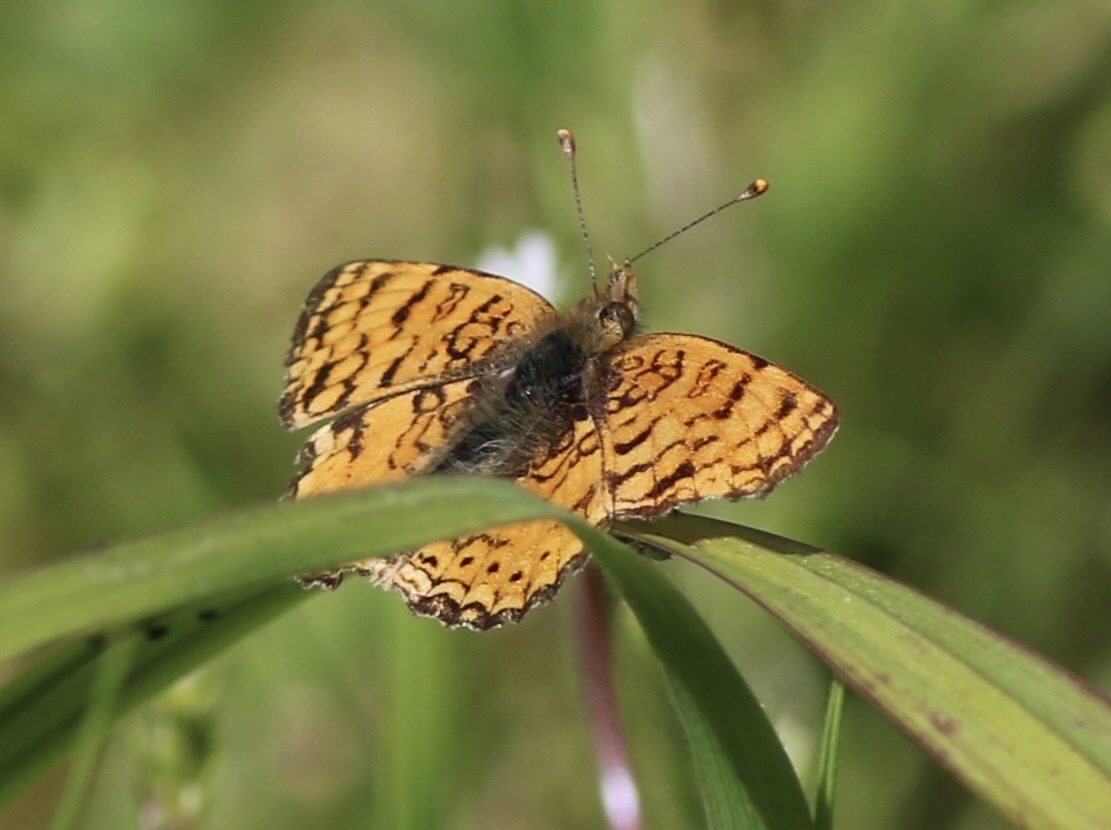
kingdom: Animalia
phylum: Arthropoda
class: Insecta
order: Lepidoptera
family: Nymphalidae
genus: Eresia
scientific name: Eresia aveyrona
